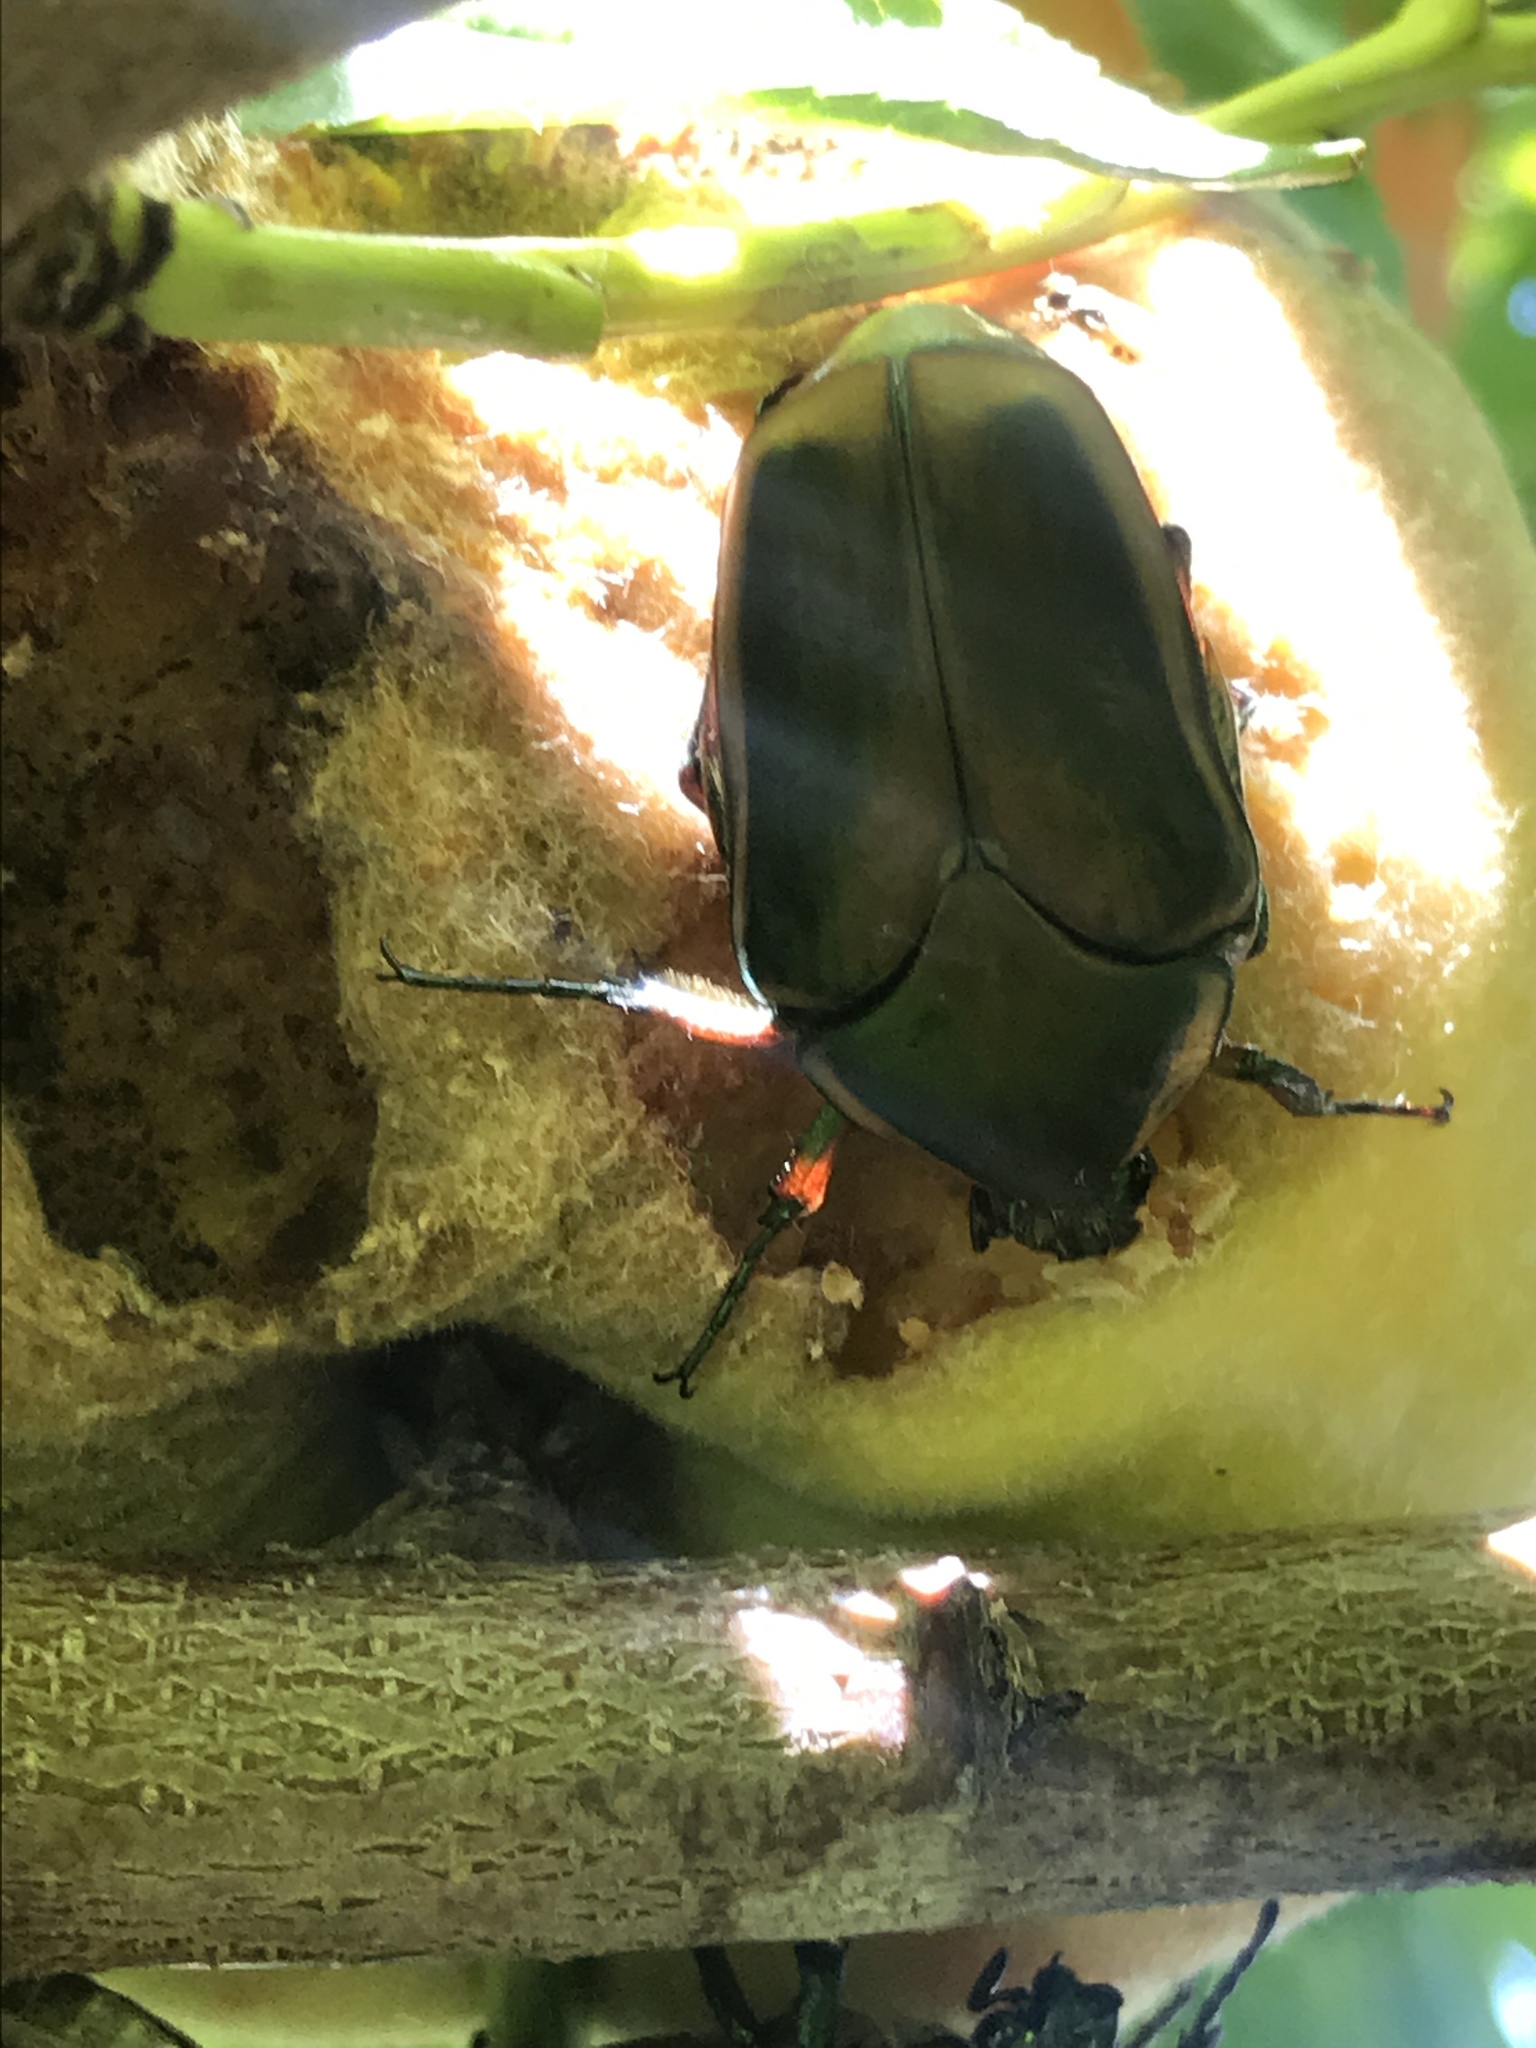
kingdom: Animalia
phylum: Arthropoda
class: Insecta
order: Coleoptera
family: Scarabaeidae
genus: Cotinis
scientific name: Cotinis nitida
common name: Common green june beetle
